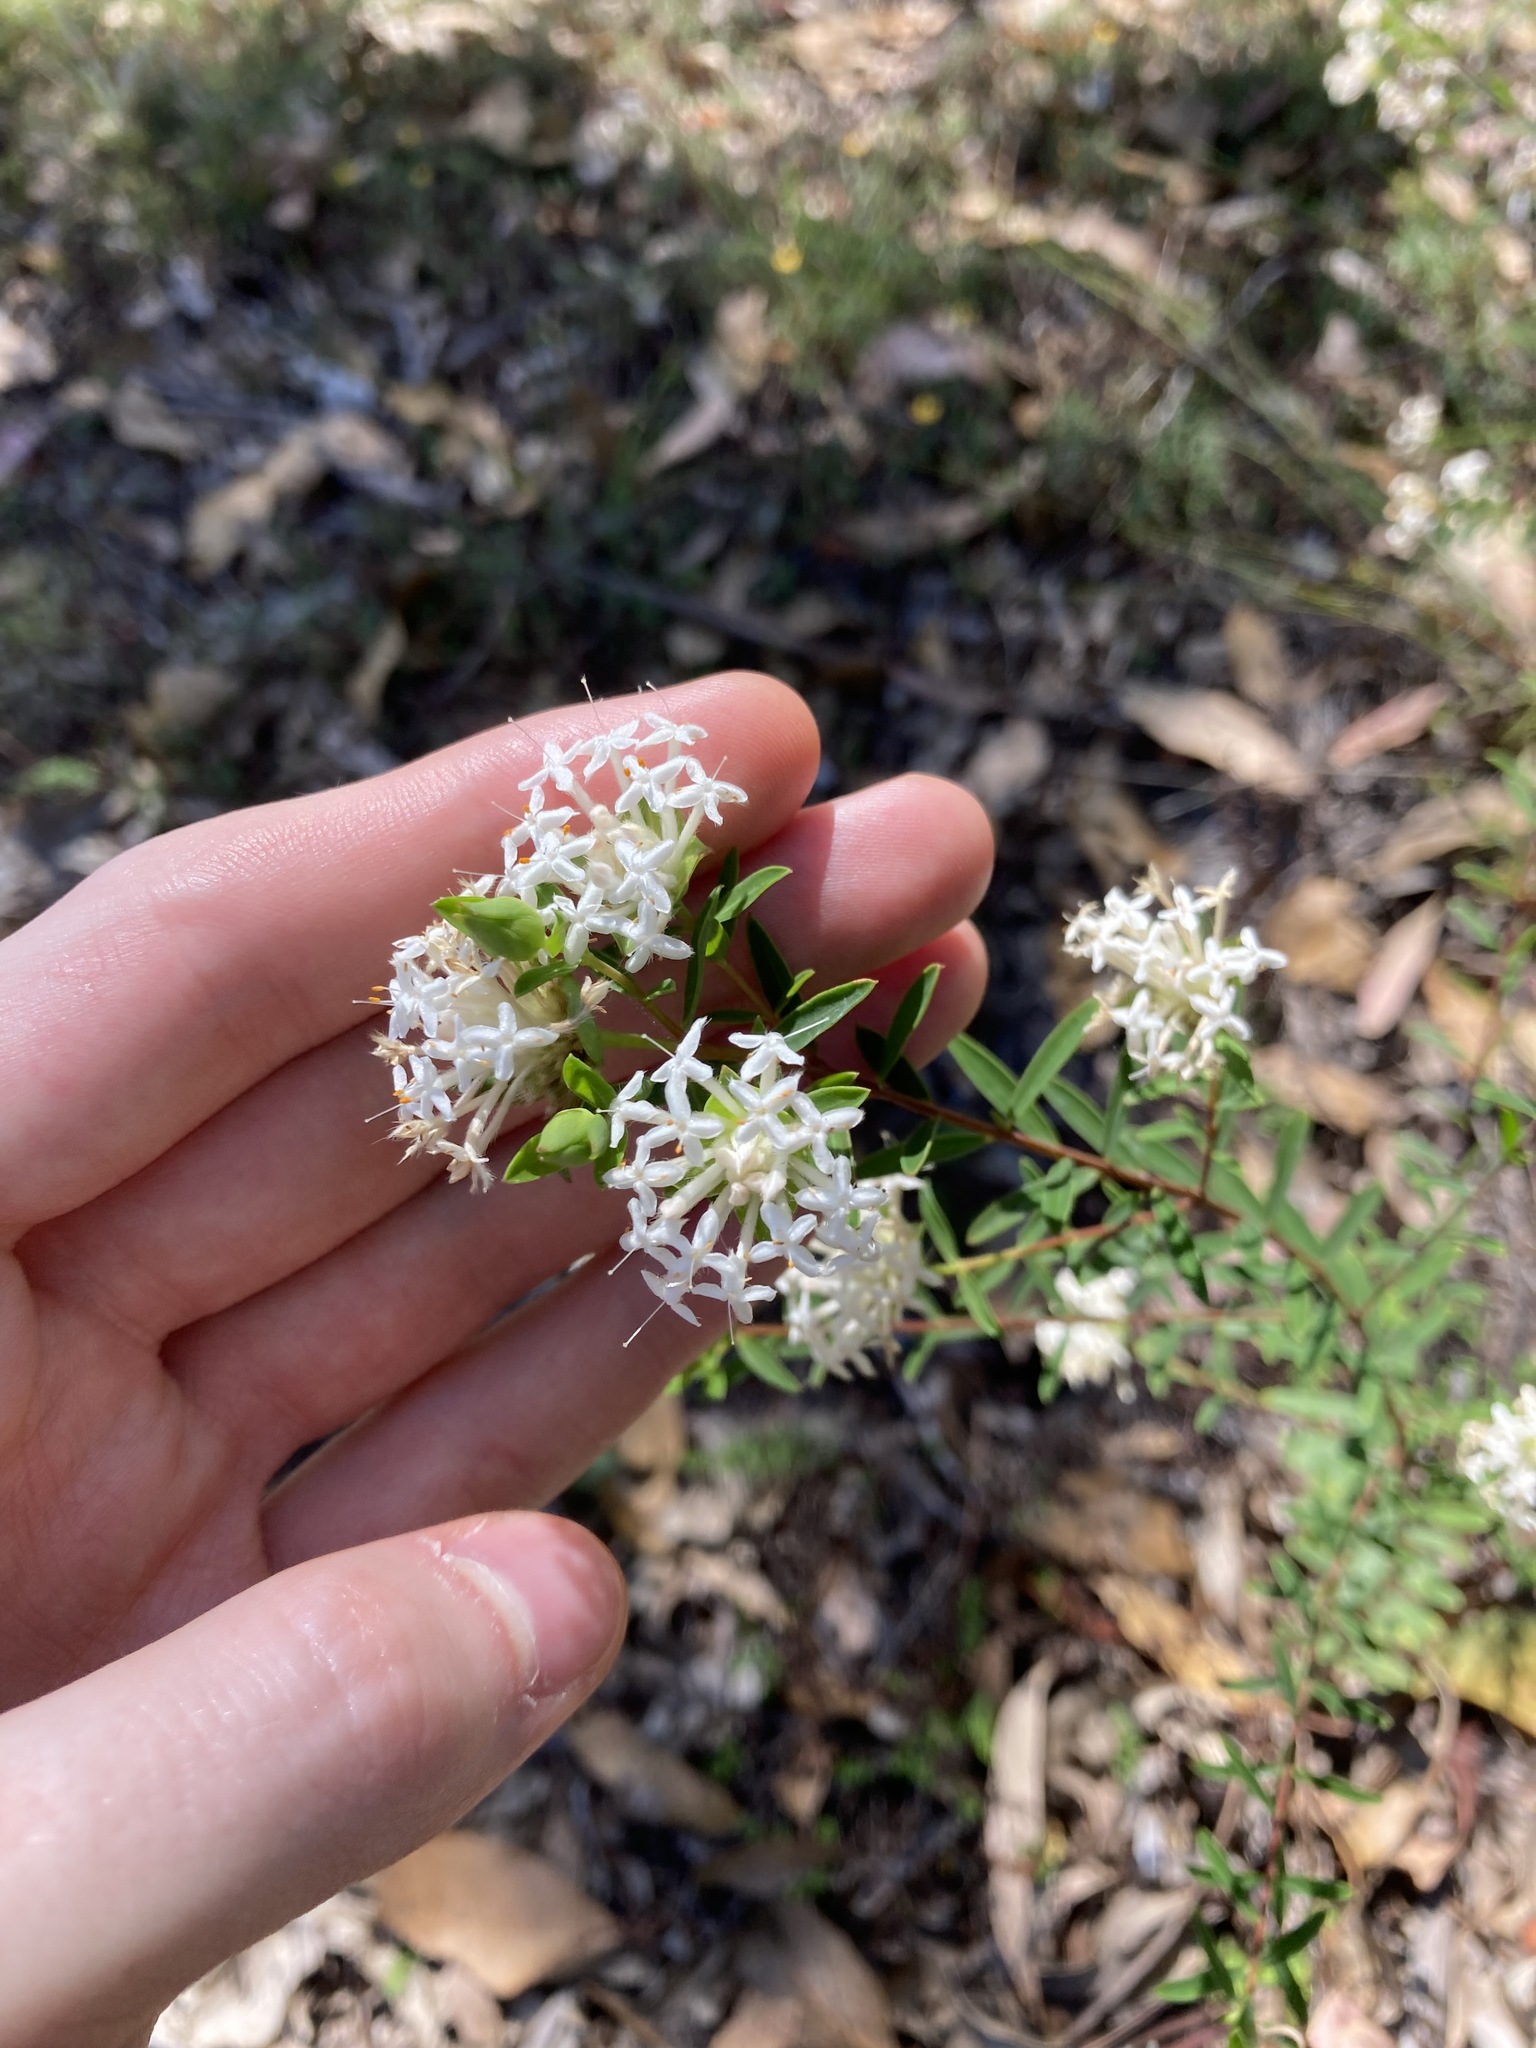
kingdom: Plantae
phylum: Tracheophyta
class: Magnoliopsida
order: Malvales
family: Thymelaeaceae
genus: Pimelea
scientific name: Pimelea linifolia
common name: Queen-of-the-bush
